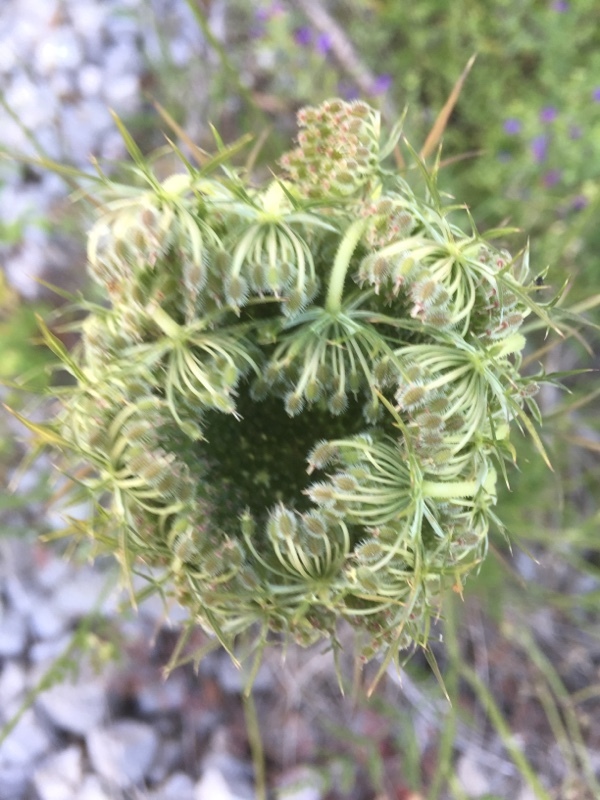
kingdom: Plantae
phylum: Tracheophyta
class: Magnoliopsida
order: Apiales
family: Apiaceae
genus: Daucus
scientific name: Daucus carota
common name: Wild carrot
